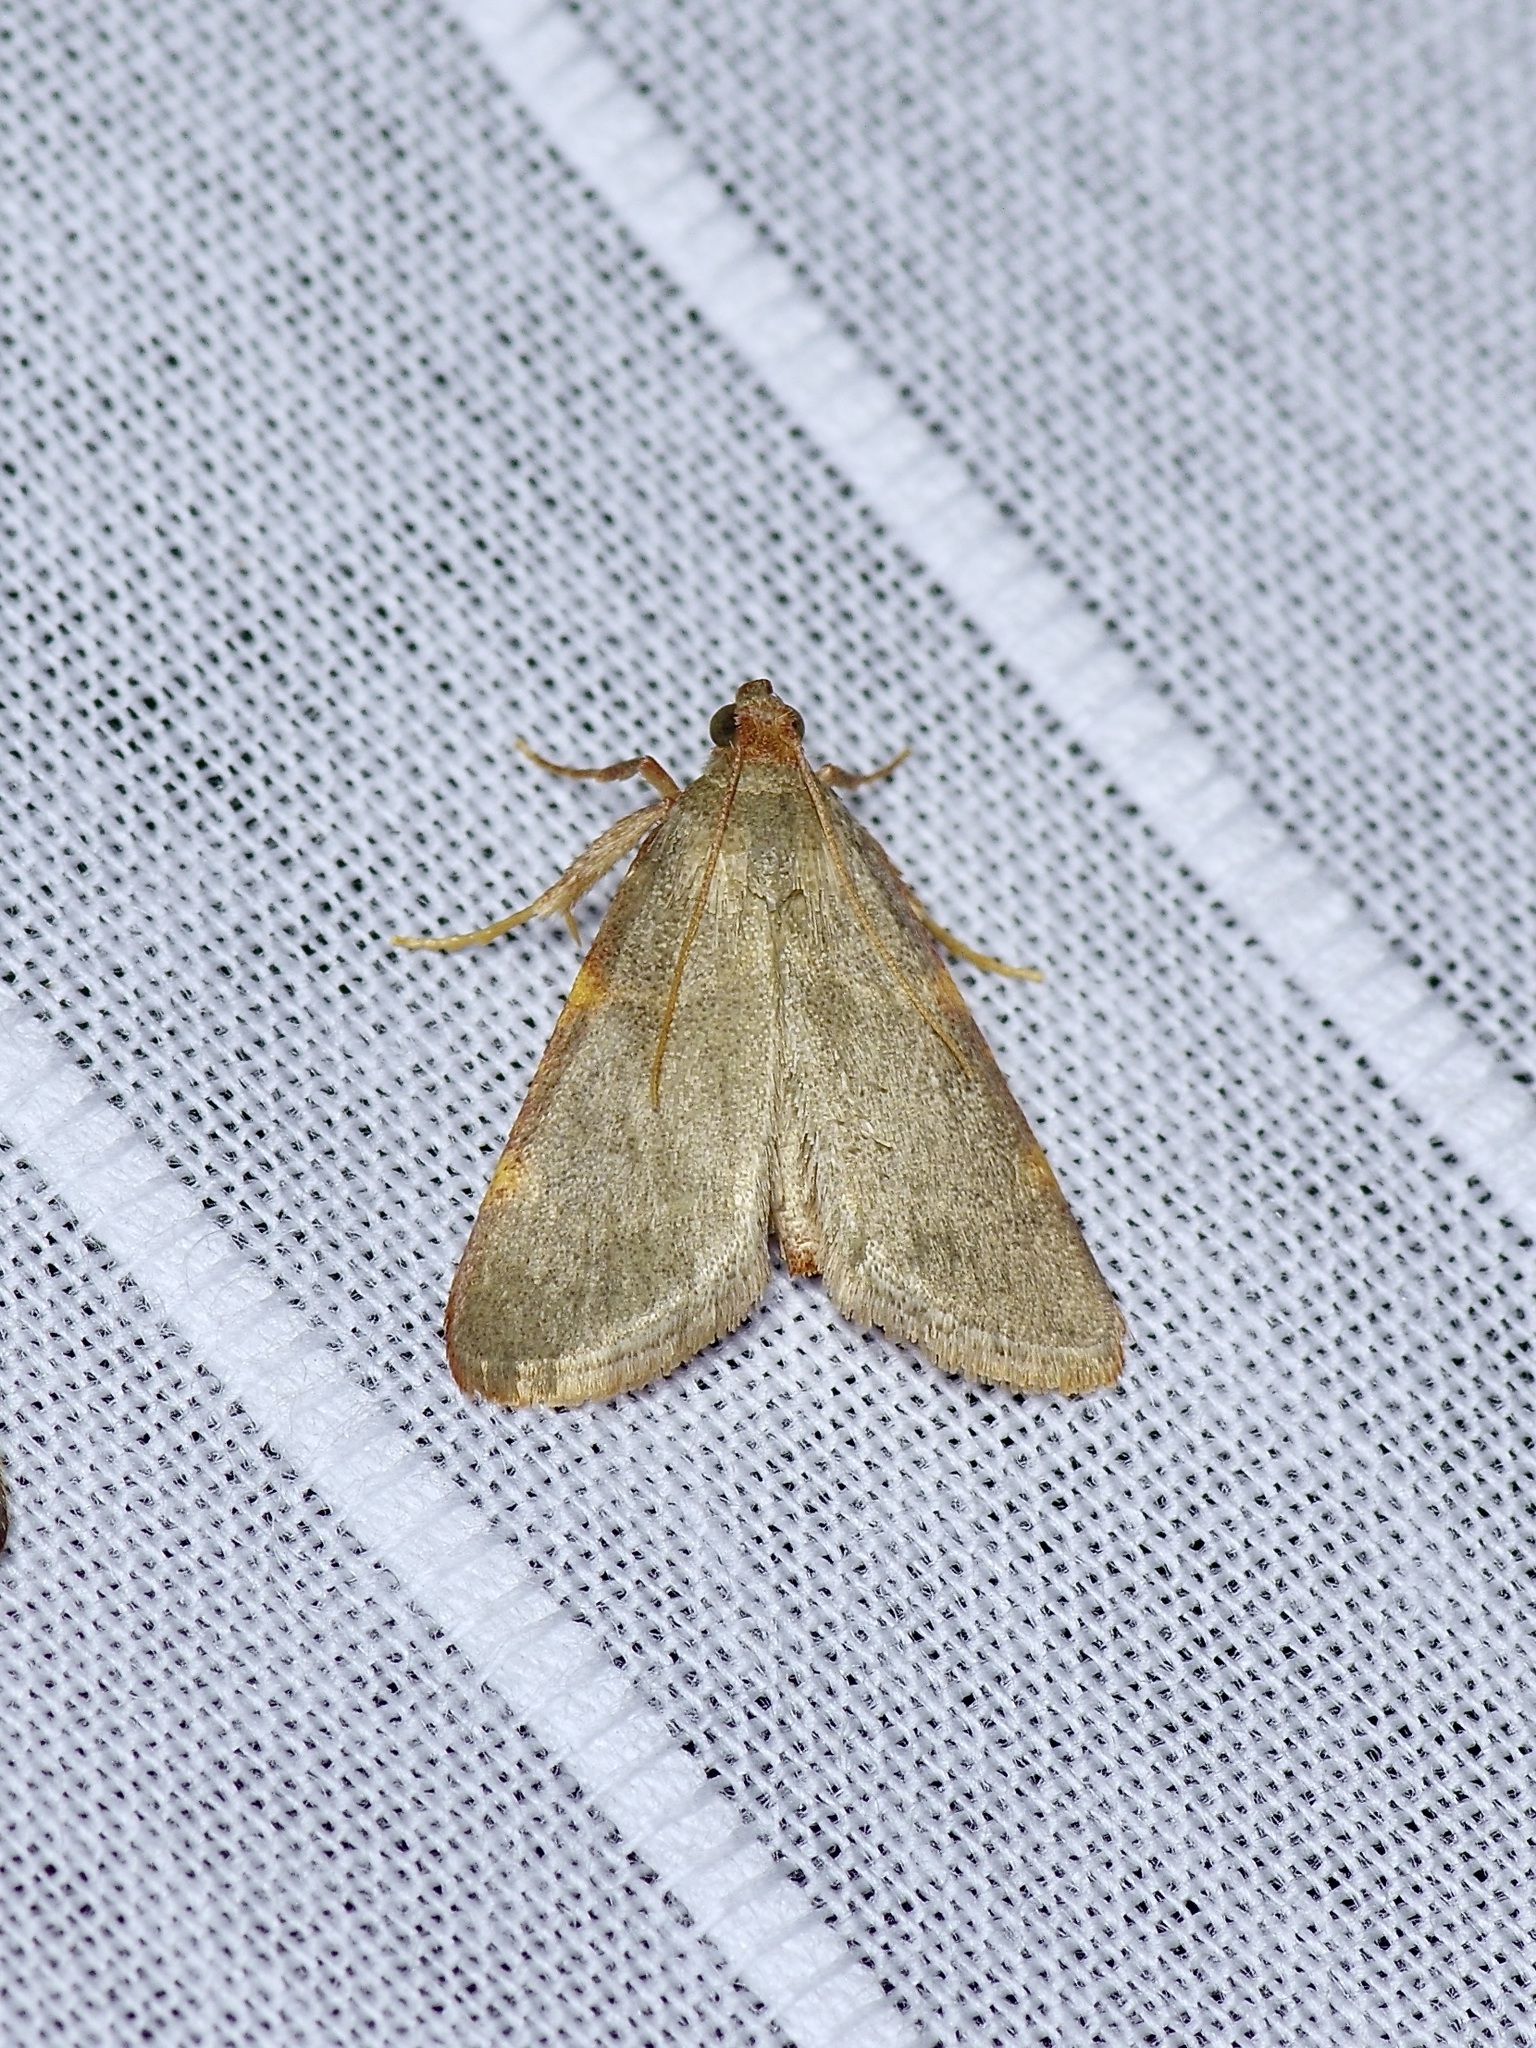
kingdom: Animalia
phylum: Arthropoda
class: Insecta
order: Lepidoptera
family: Pyralidae
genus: Hypsopygia
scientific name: Hypsopygia binodulalis
